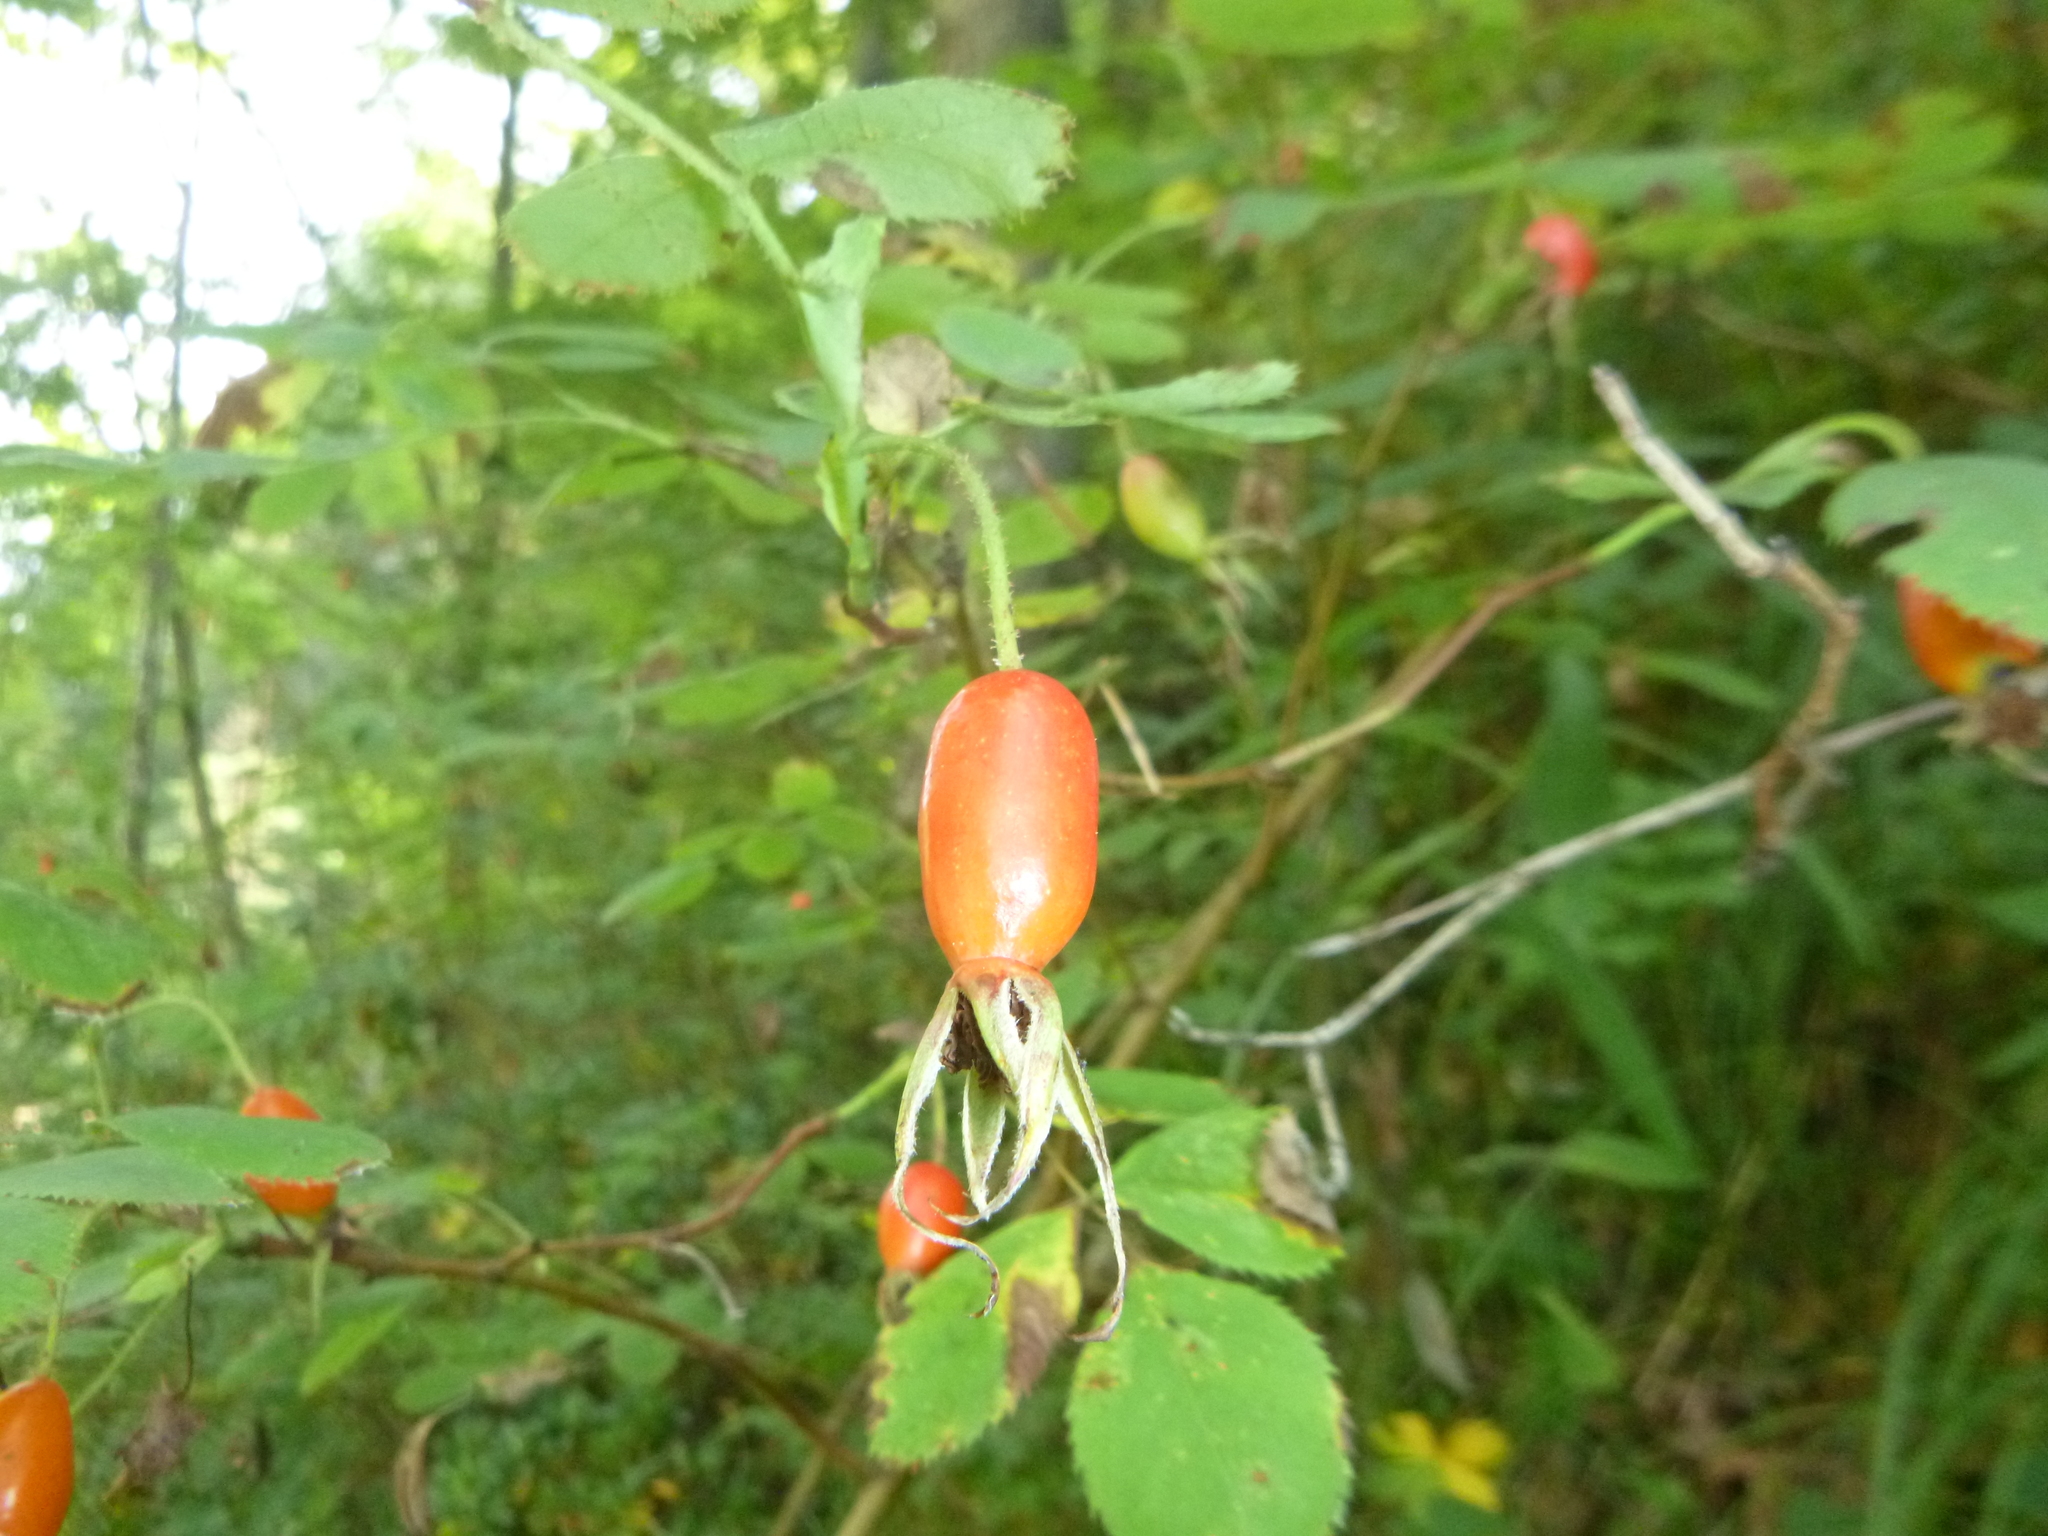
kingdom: Plantae
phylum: Tracheophyta
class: Magnoliopsida
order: Rosales
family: Rosaceae
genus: Rosa
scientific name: Rosa pendulina
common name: Alpine rose
